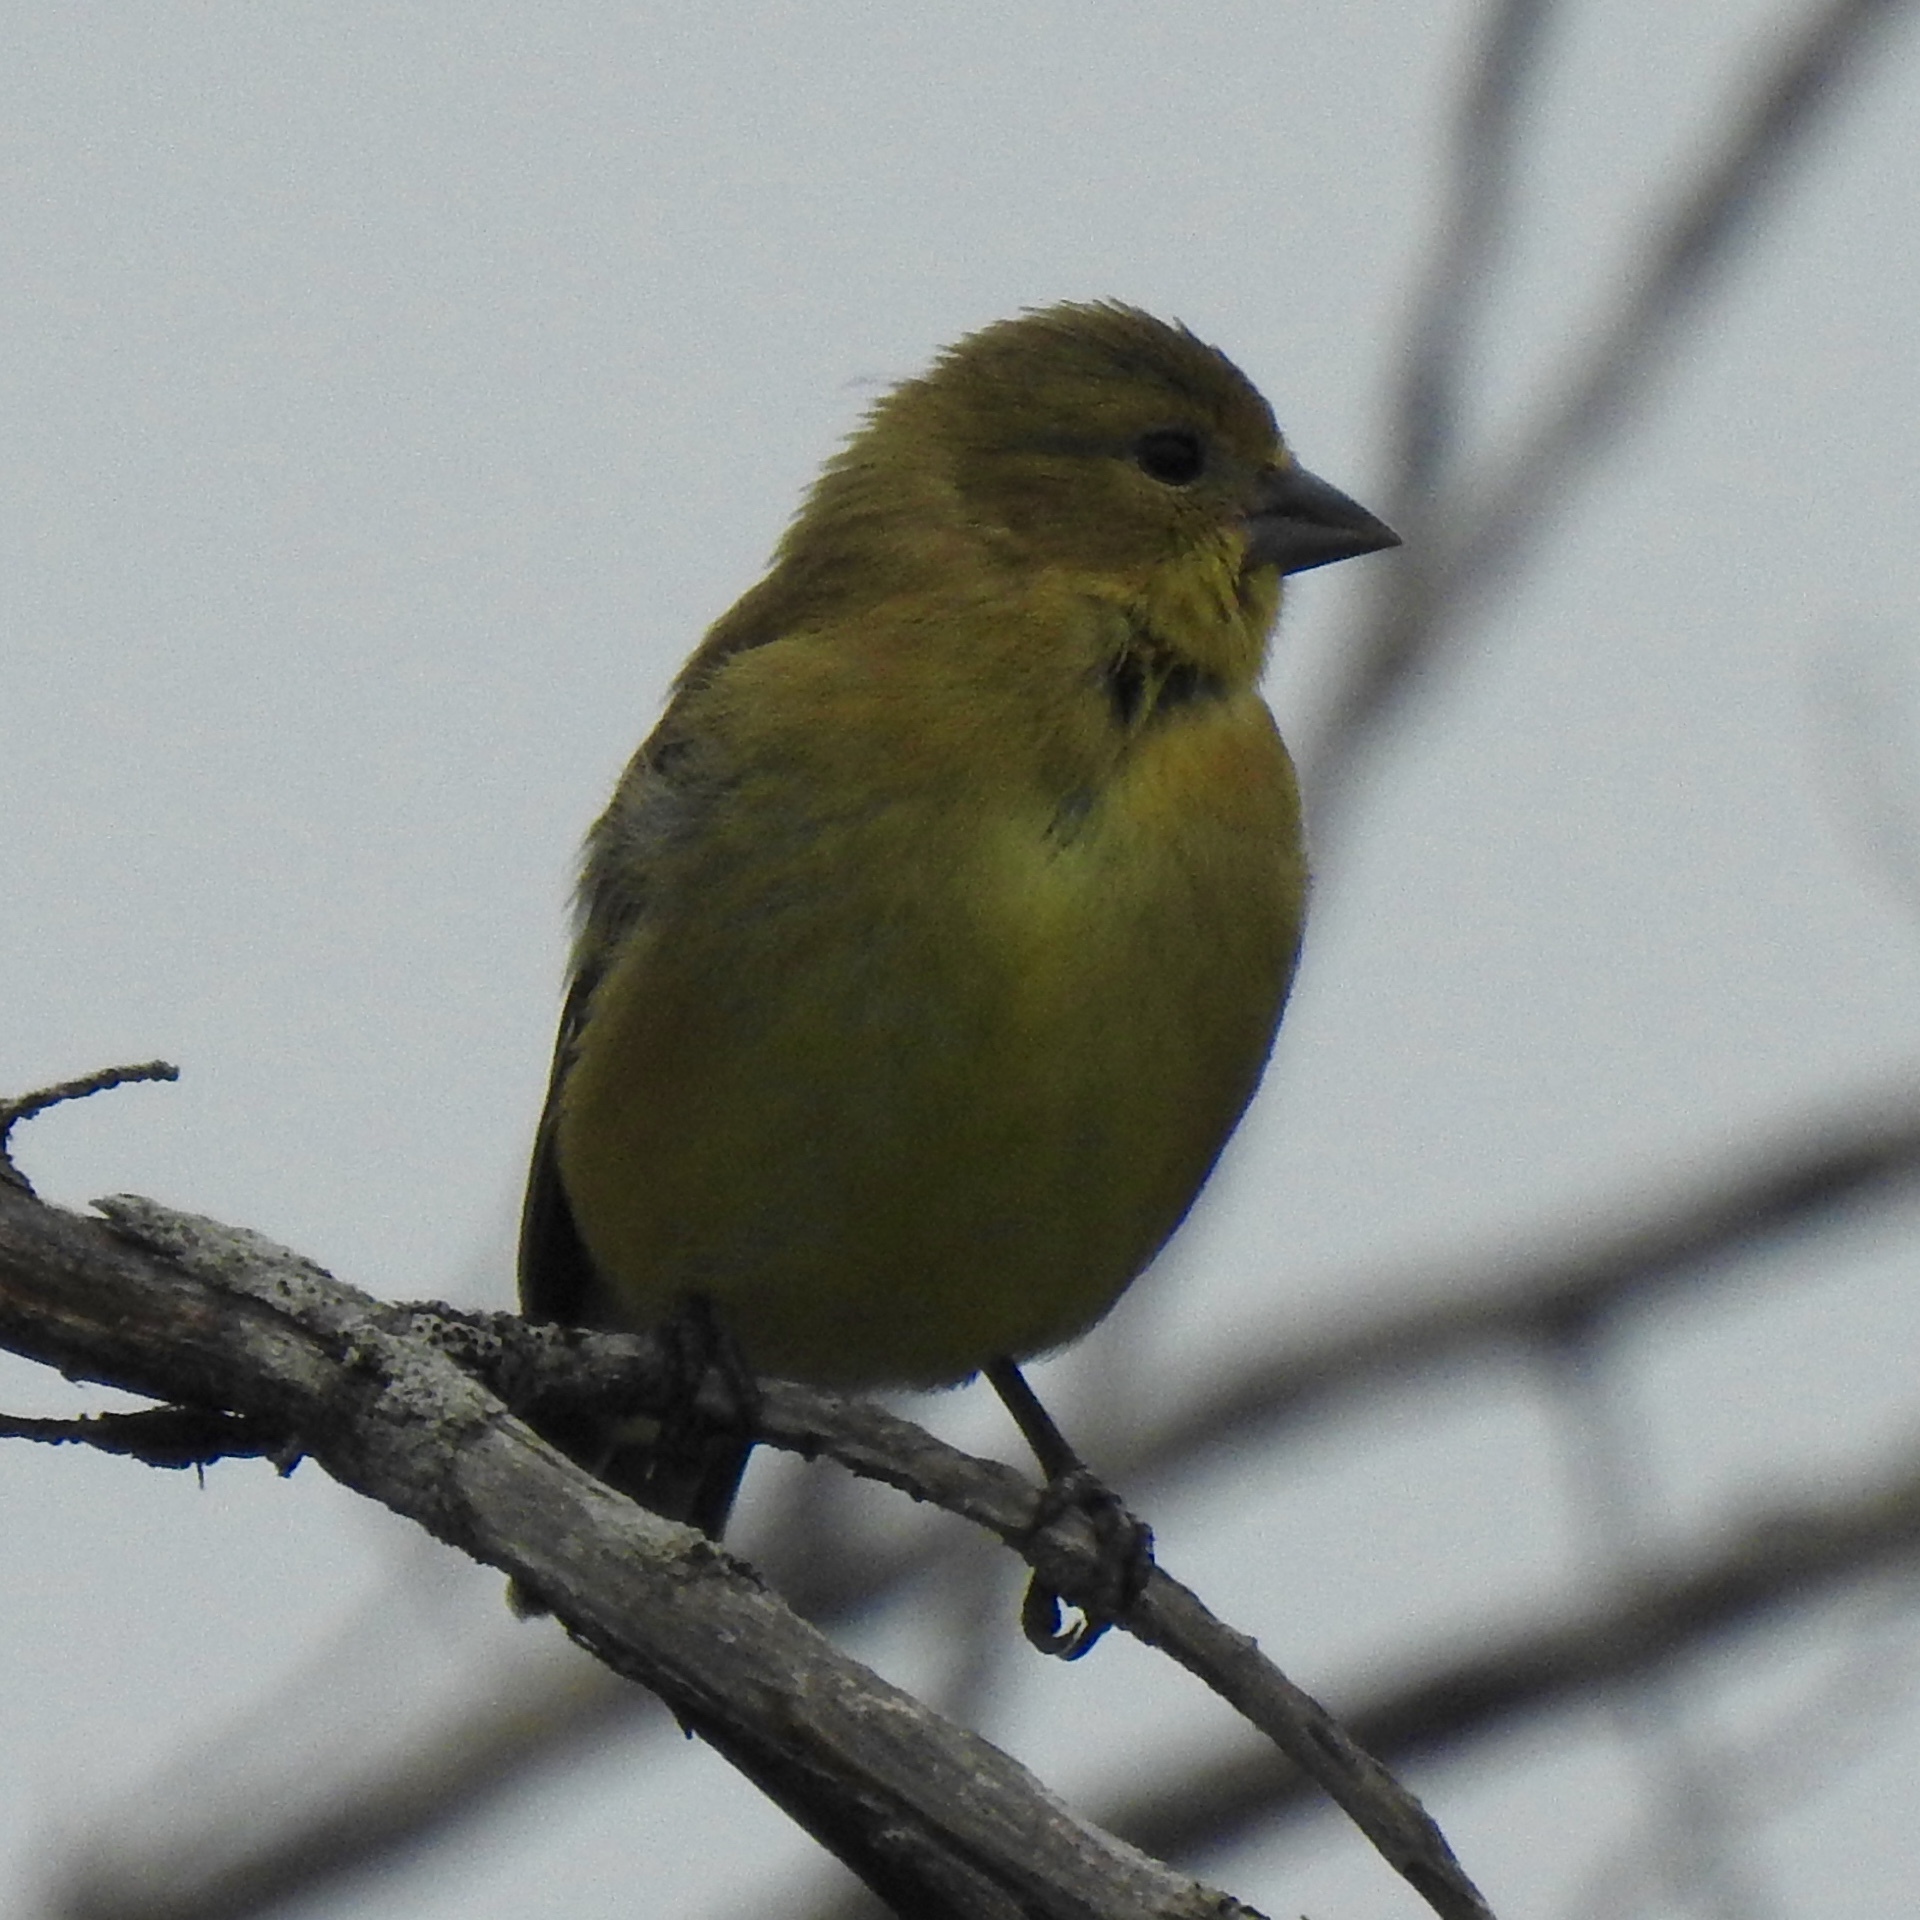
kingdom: Animalia
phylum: Chordata
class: Aves
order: Passeriformes
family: Fringillidae
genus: Spinus
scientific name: Spinus psaltria
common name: Lesser goldfinch
